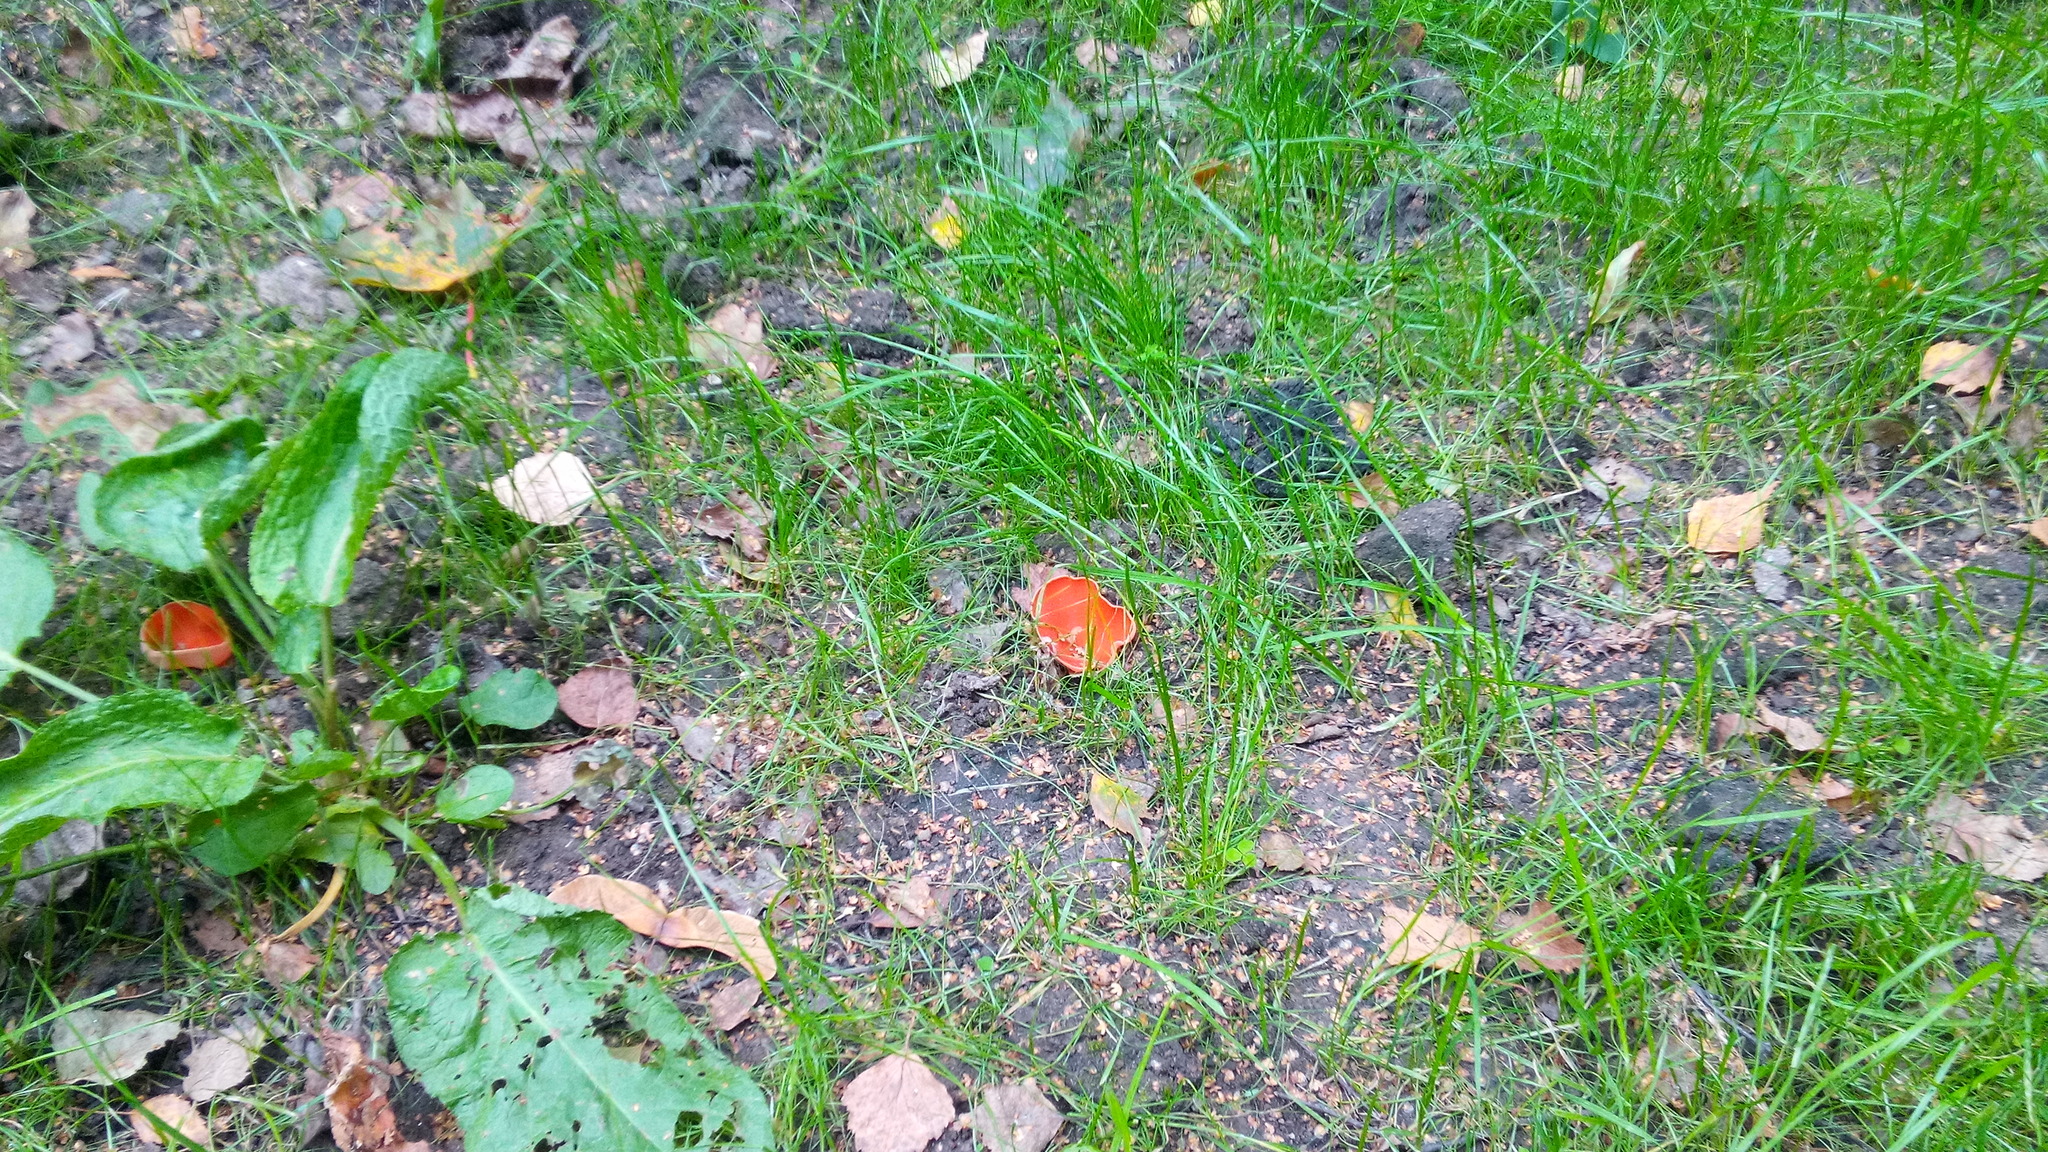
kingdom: Fungi
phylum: Ascomycota
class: Pezizomycetes
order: Pezizales
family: Pyronemataceae
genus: Aleuria
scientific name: Aleuria aurantia
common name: Orange peel fungus
